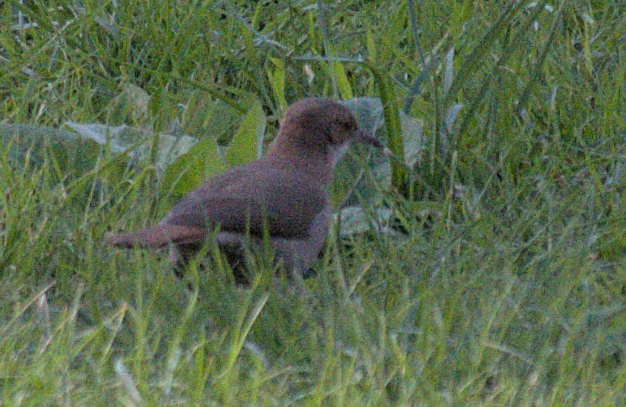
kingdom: Animalia
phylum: Chordata
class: Aves
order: Passeriformes
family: Furnariidae
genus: Furnarius
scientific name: Furnarius rufus
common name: Rufous hornero
